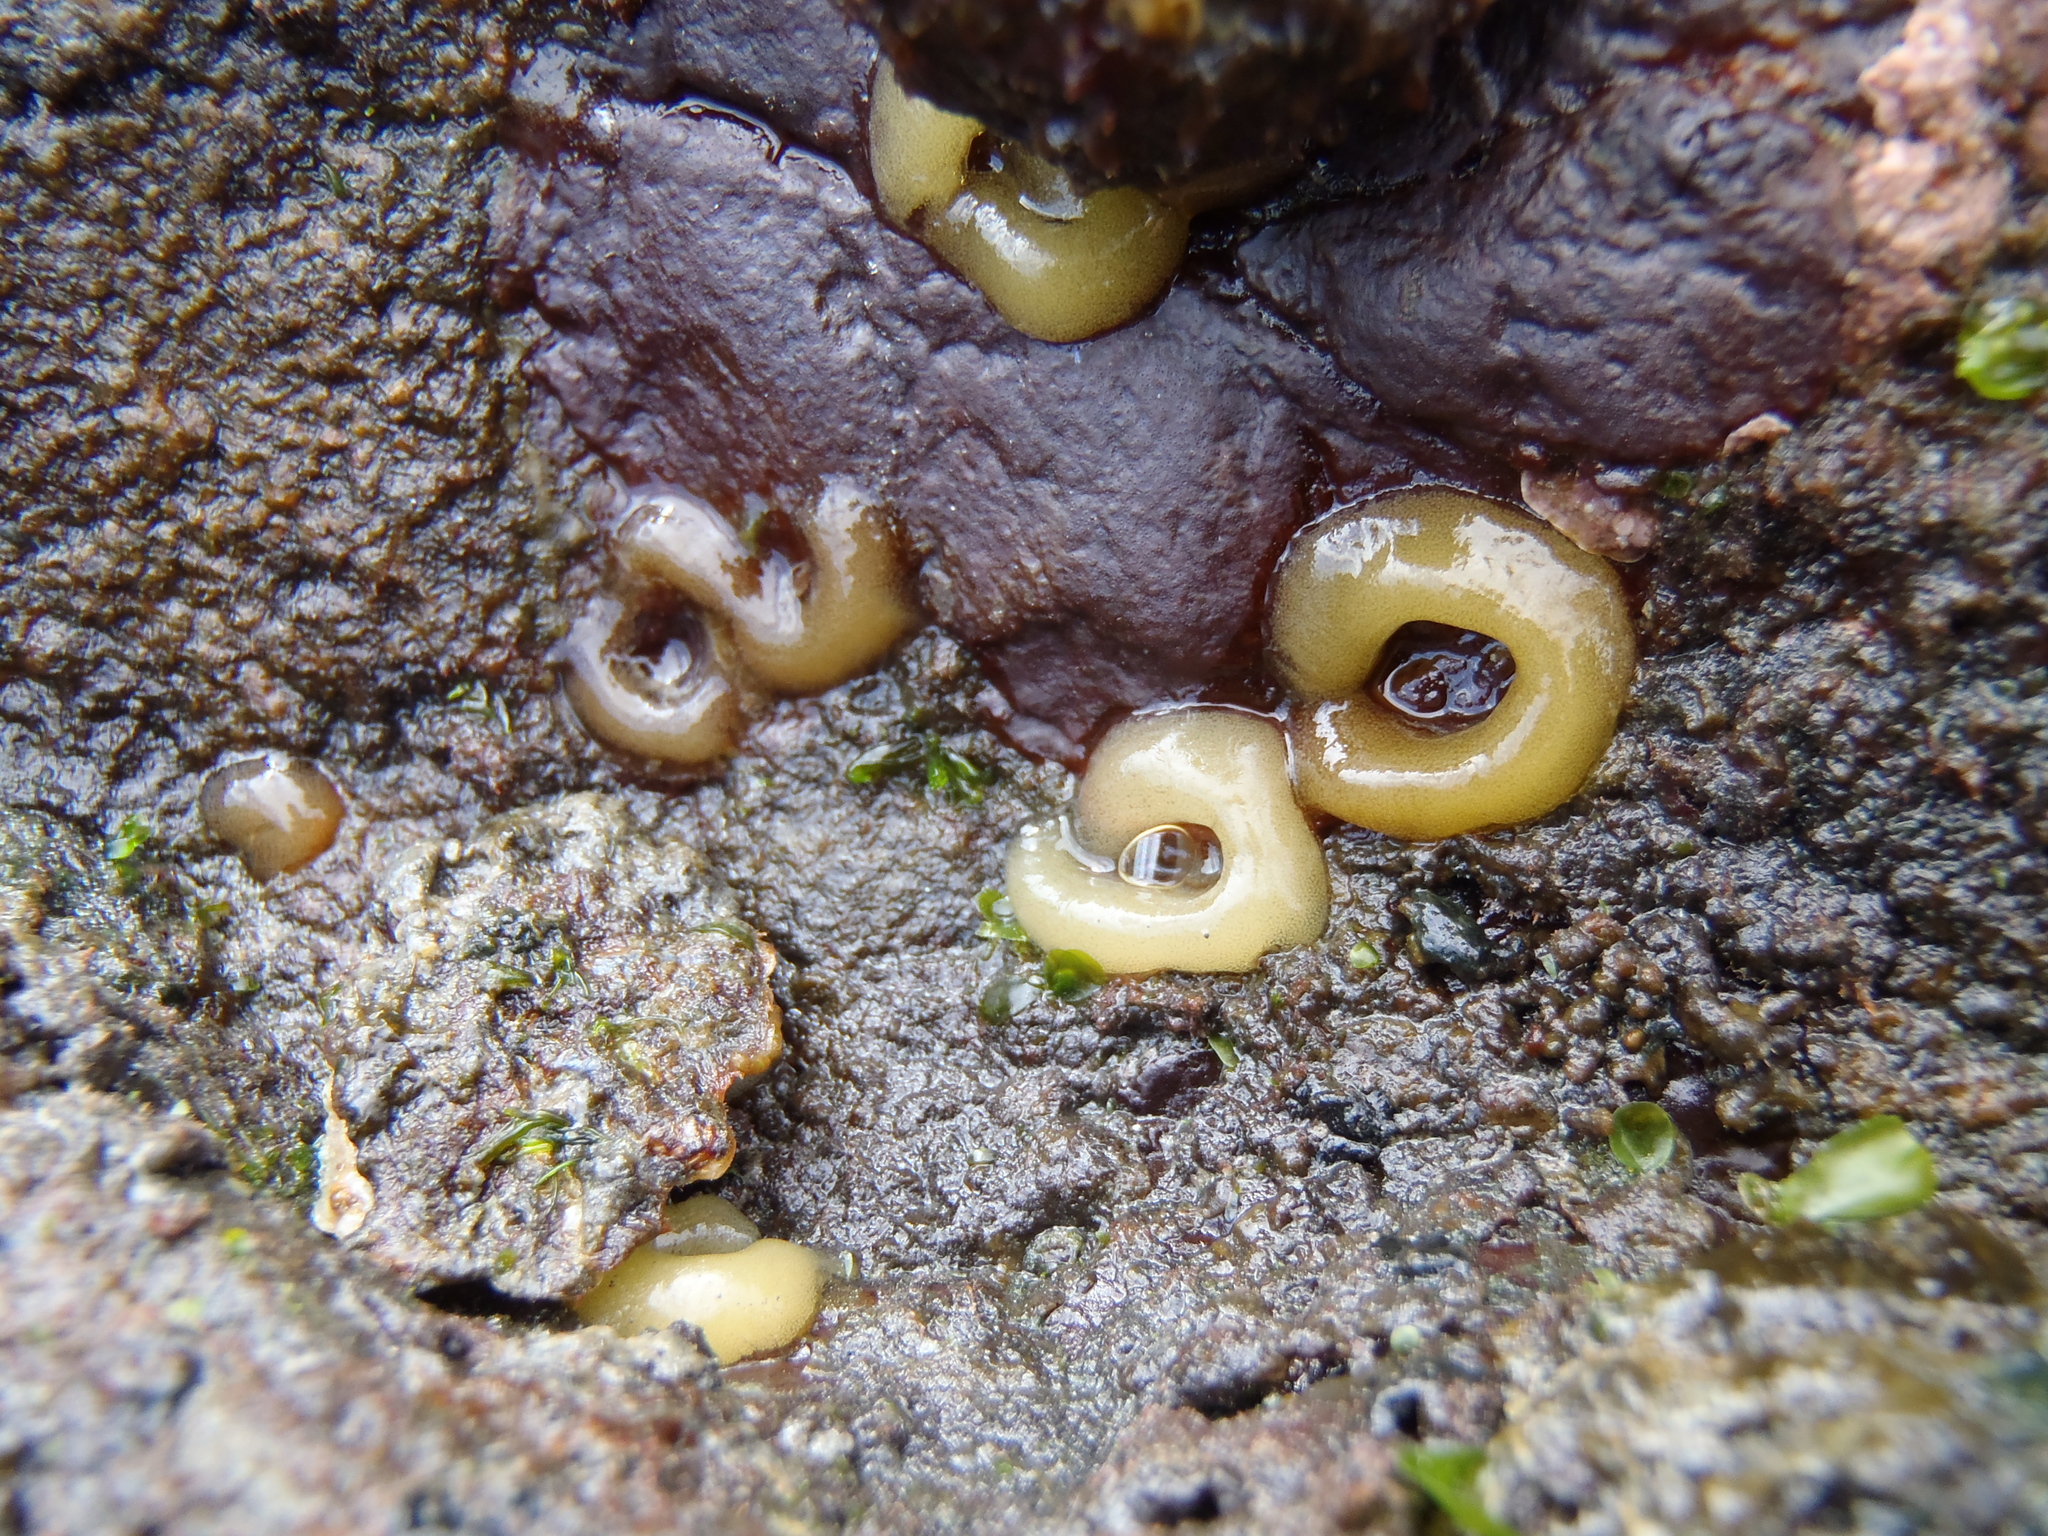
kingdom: Animalia
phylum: Mollusca
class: Gastropoda
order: Siphonariida
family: Siphonariidae
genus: Siphonaria
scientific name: Siphonaria australis
